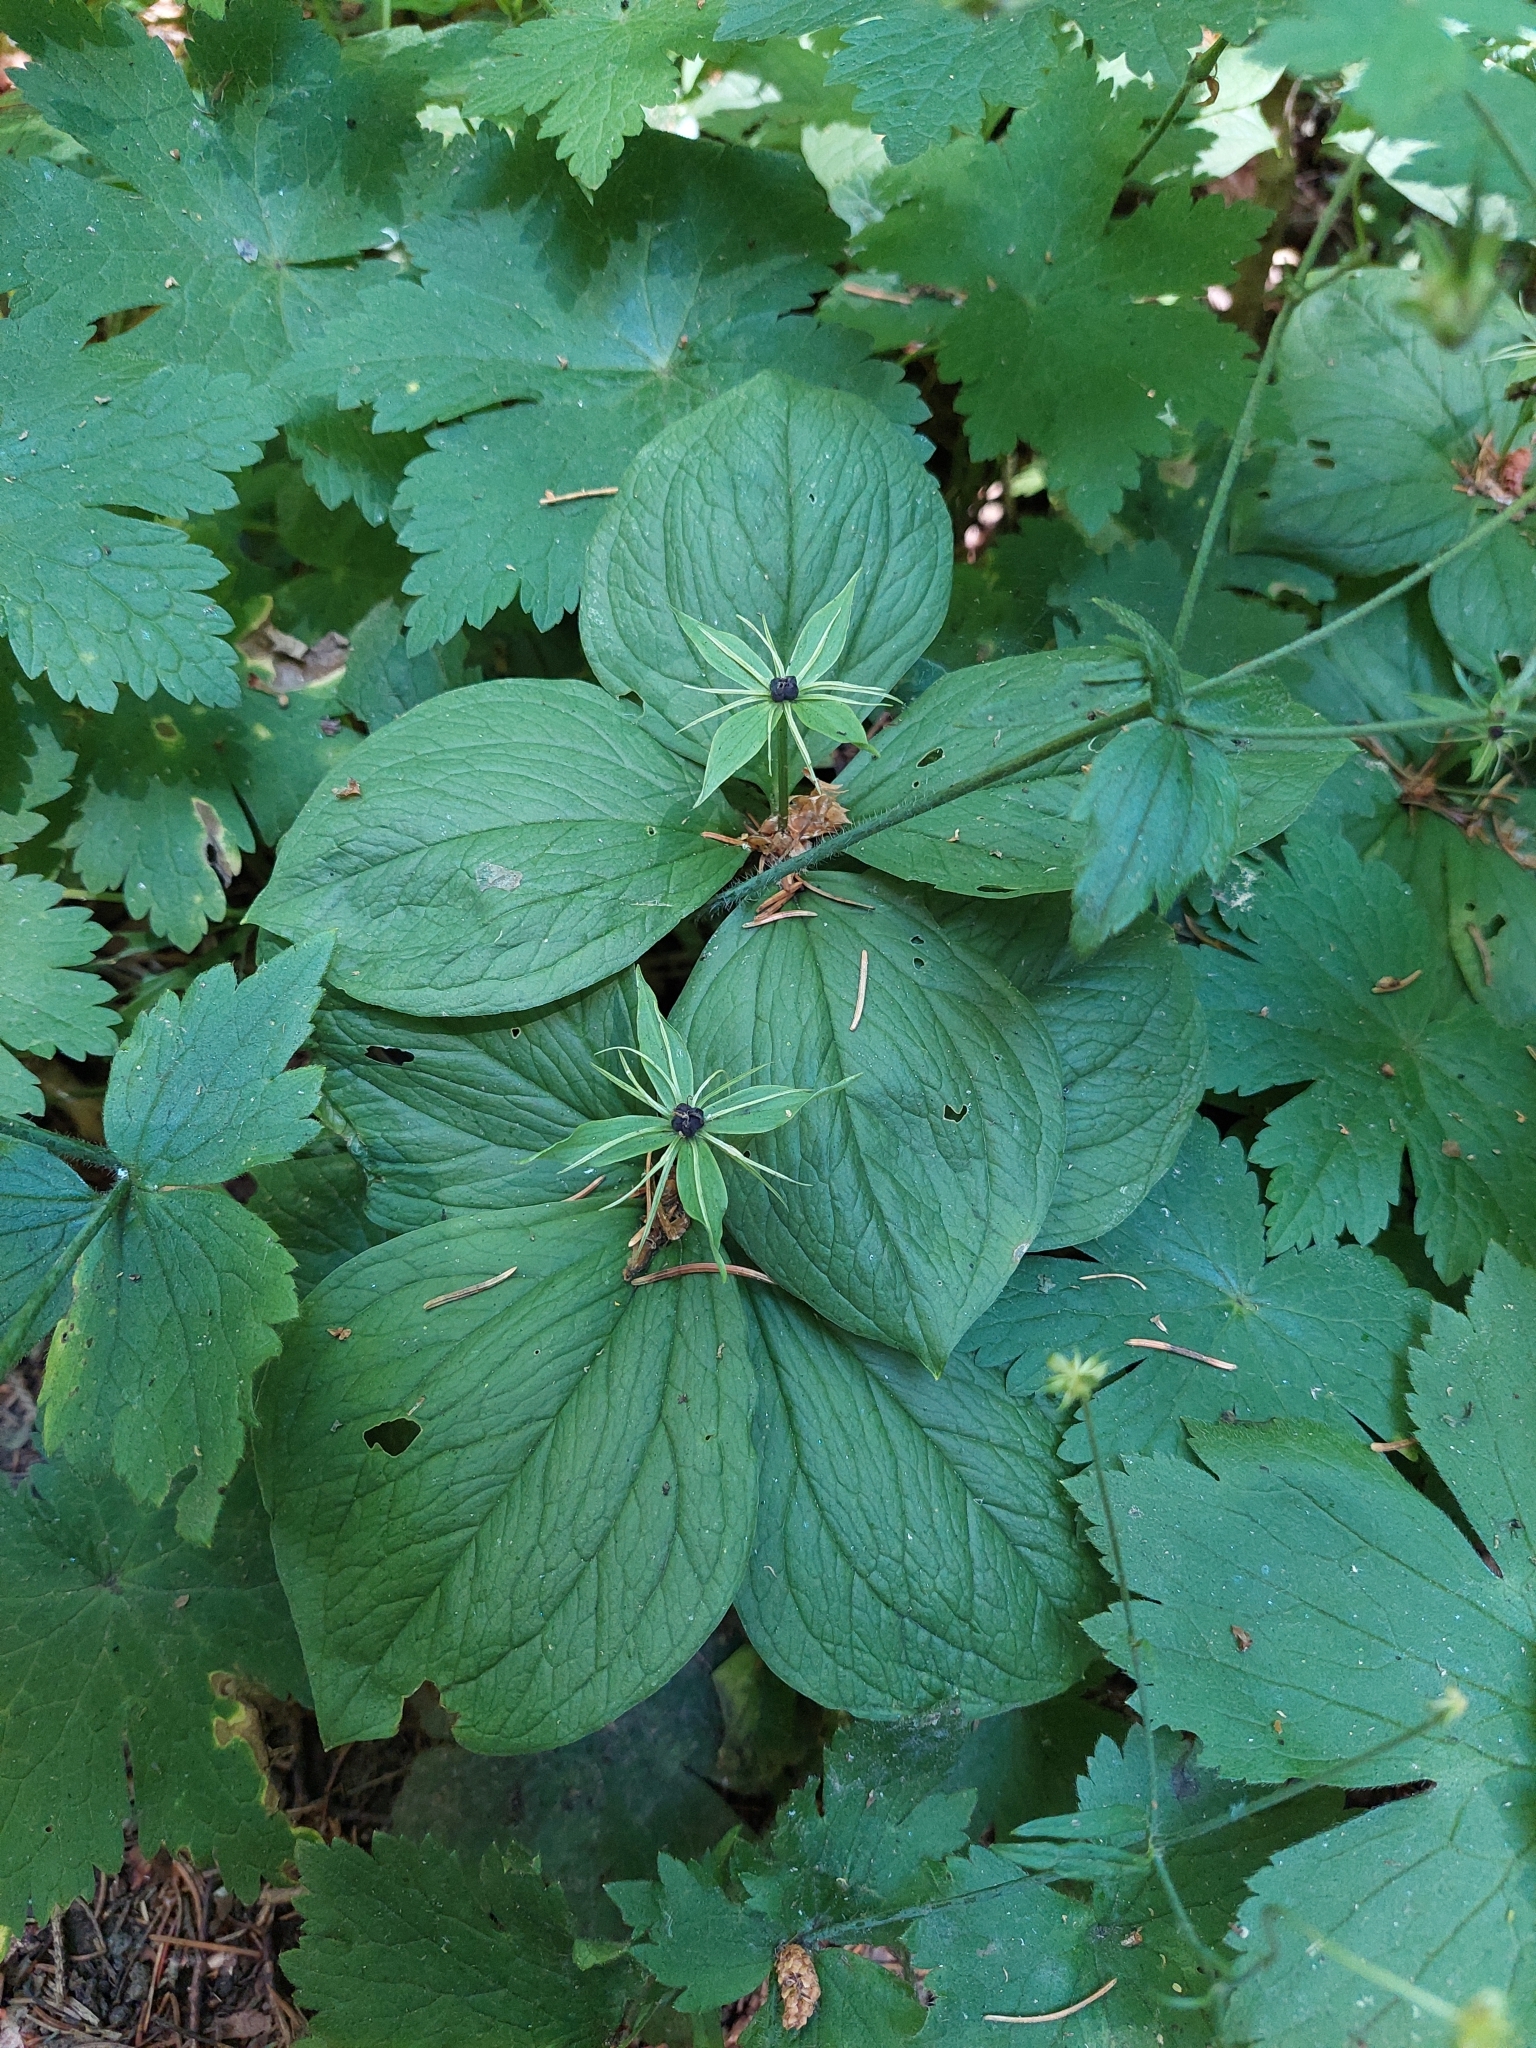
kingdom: Plantae
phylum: Tracheophyta
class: Liliopsida
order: Liliales
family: Melanthiaceae
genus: Paris
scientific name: Paris quadrifolia
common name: Herb-paris
